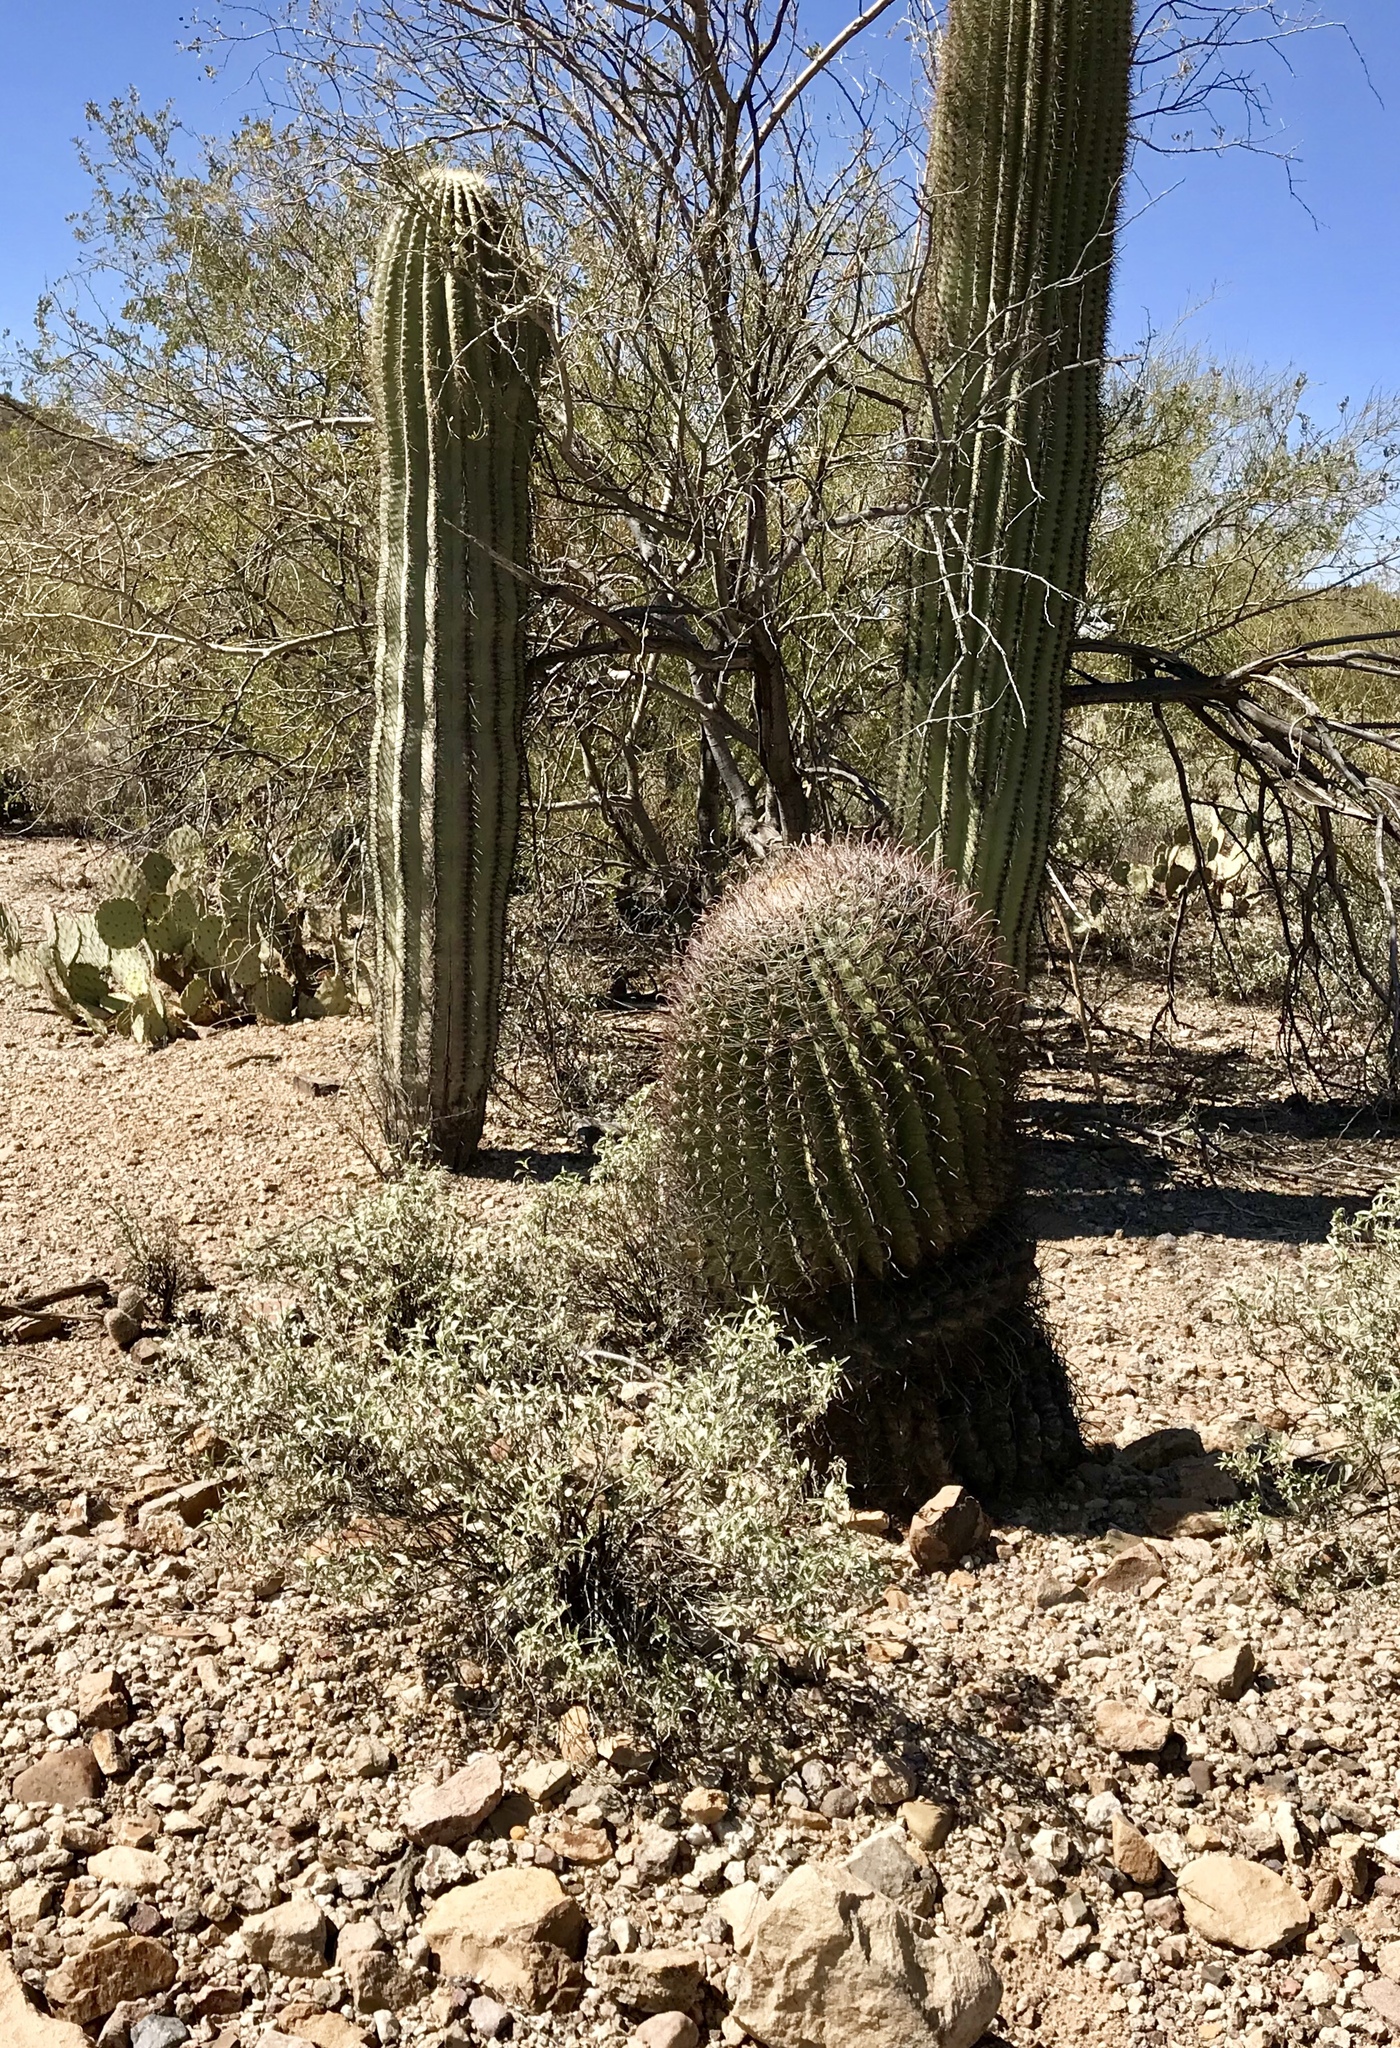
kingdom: Plantae
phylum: Tracheophyta
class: Magnoliopsida
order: Caryophyllales
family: Cactaceae
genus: Ferocactus
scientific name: Ferocactus wislizeni
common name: Candy barrel cactus
